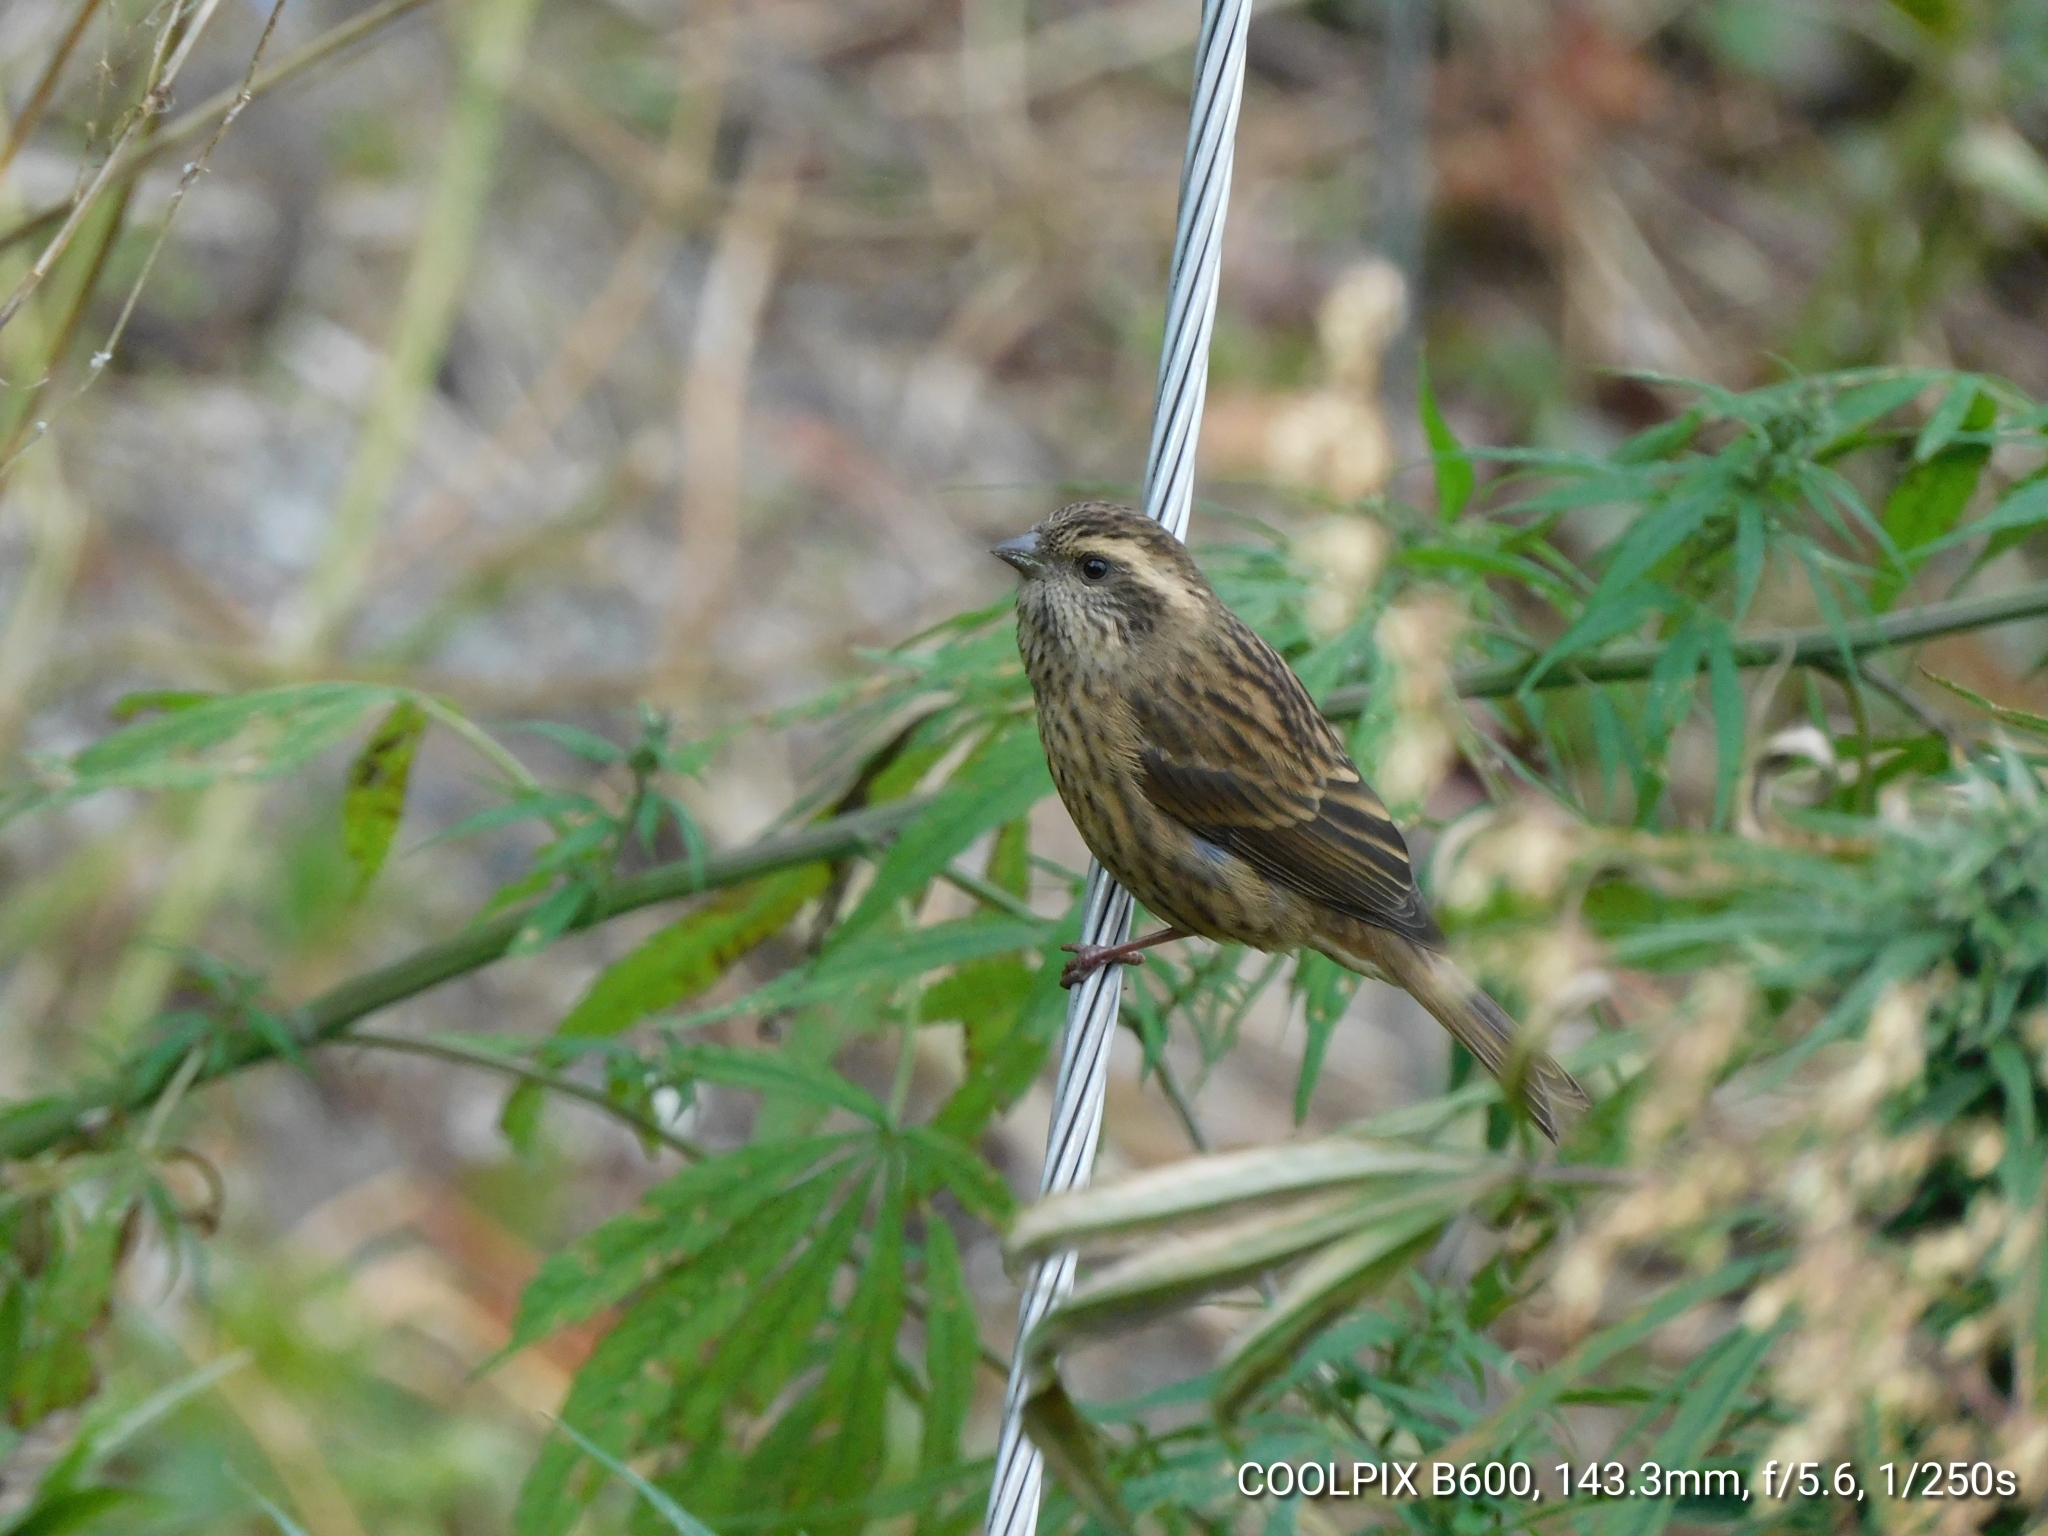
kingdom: Animalia
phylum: Chordata
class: Aves
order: Passeriformes
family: Fringillidae
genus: Carpodacus
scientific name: Carpodacus rodochroa
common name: Pink-browed rosefinch
